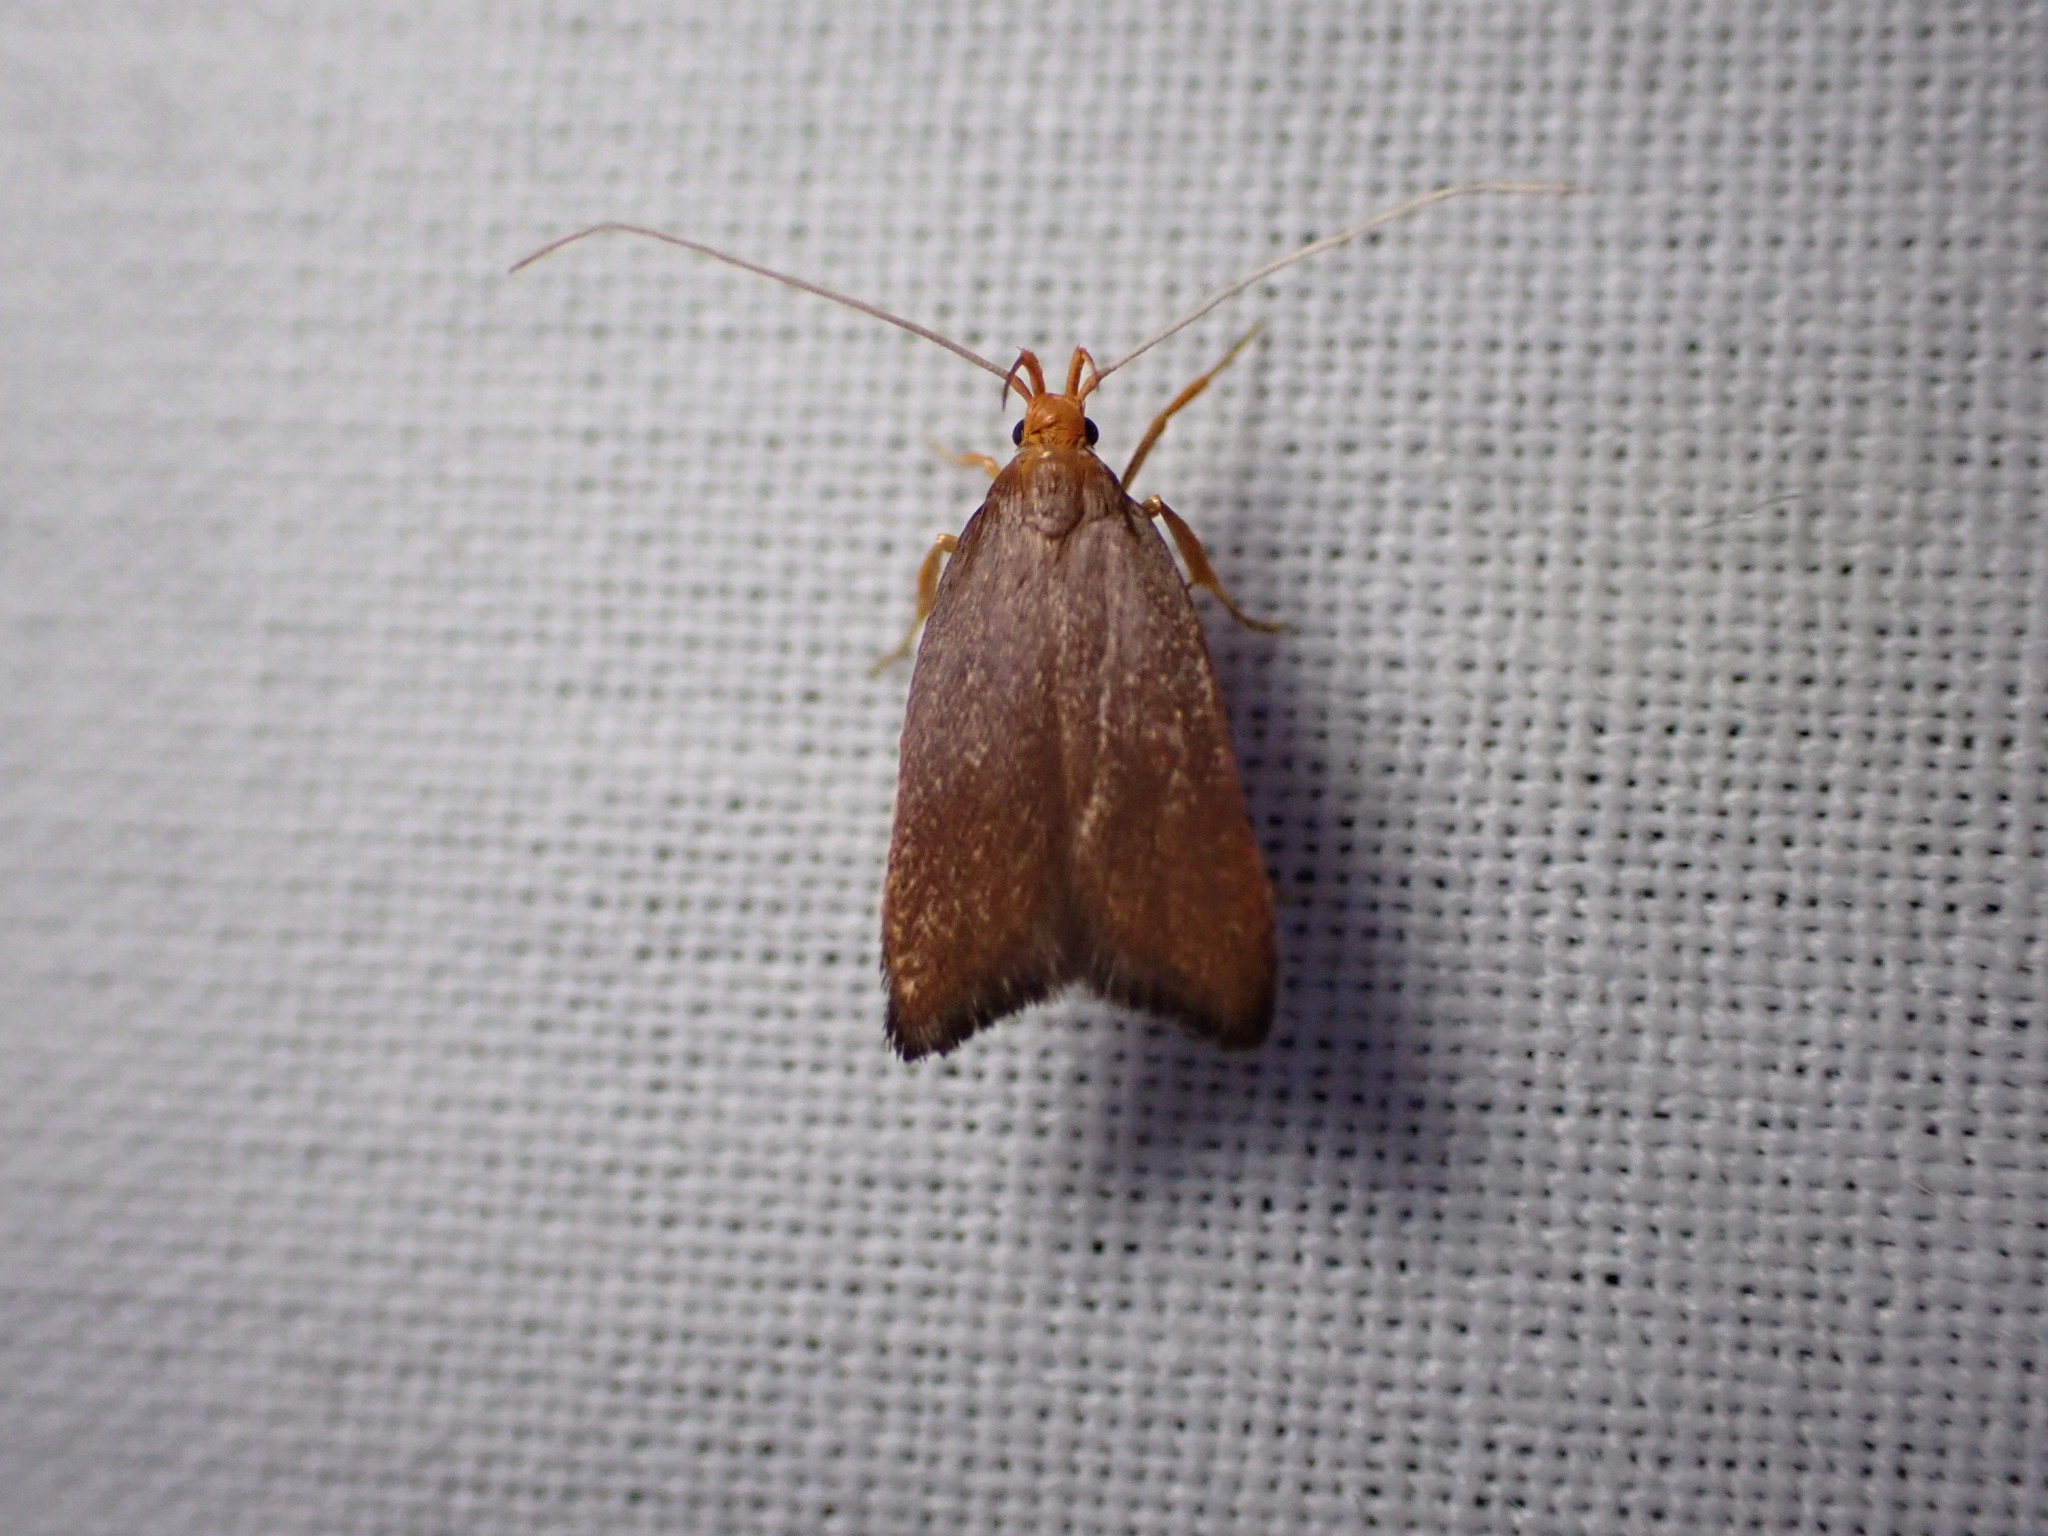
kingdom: Animalia
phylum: Arthropoda
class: Insecta
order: Lepidoptera
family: Lecithoceridae
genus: Eurodachtha
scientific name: Eurodachtha pallicornella
